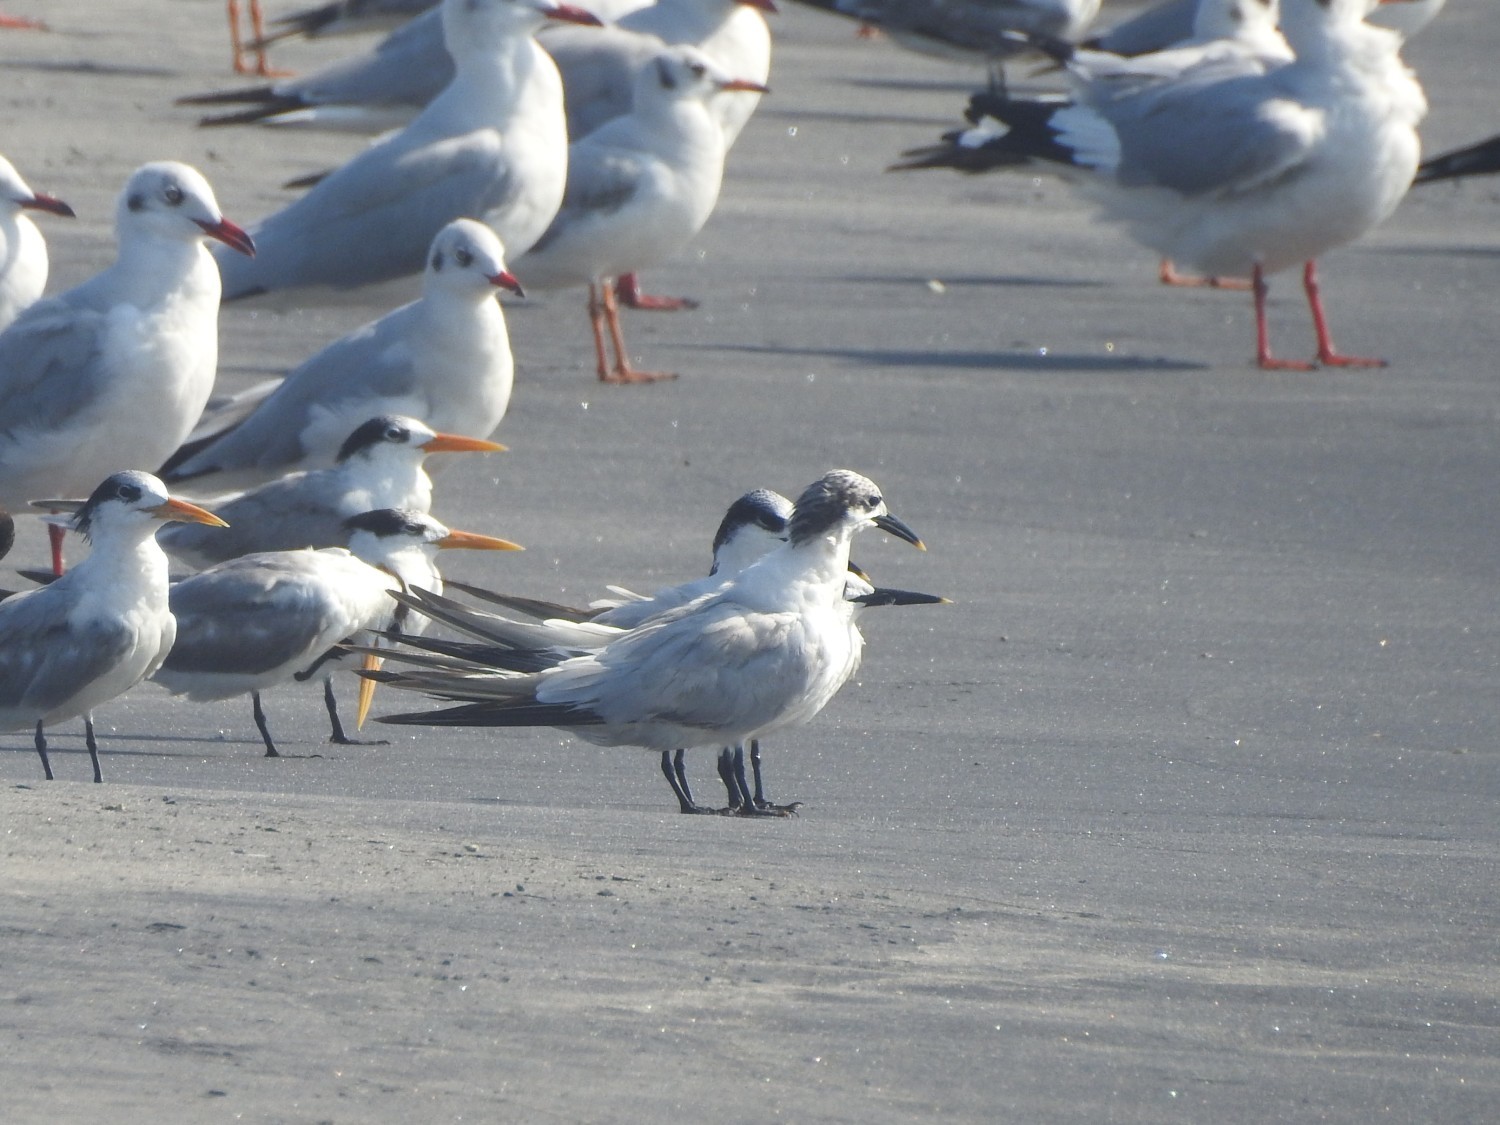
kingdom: Animalia
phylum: Chordata
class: Aves
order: Charadriiformes
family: Laridae
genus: Thalasseus
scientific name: Thalasseus sandvicensis
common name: Sandwich tern
